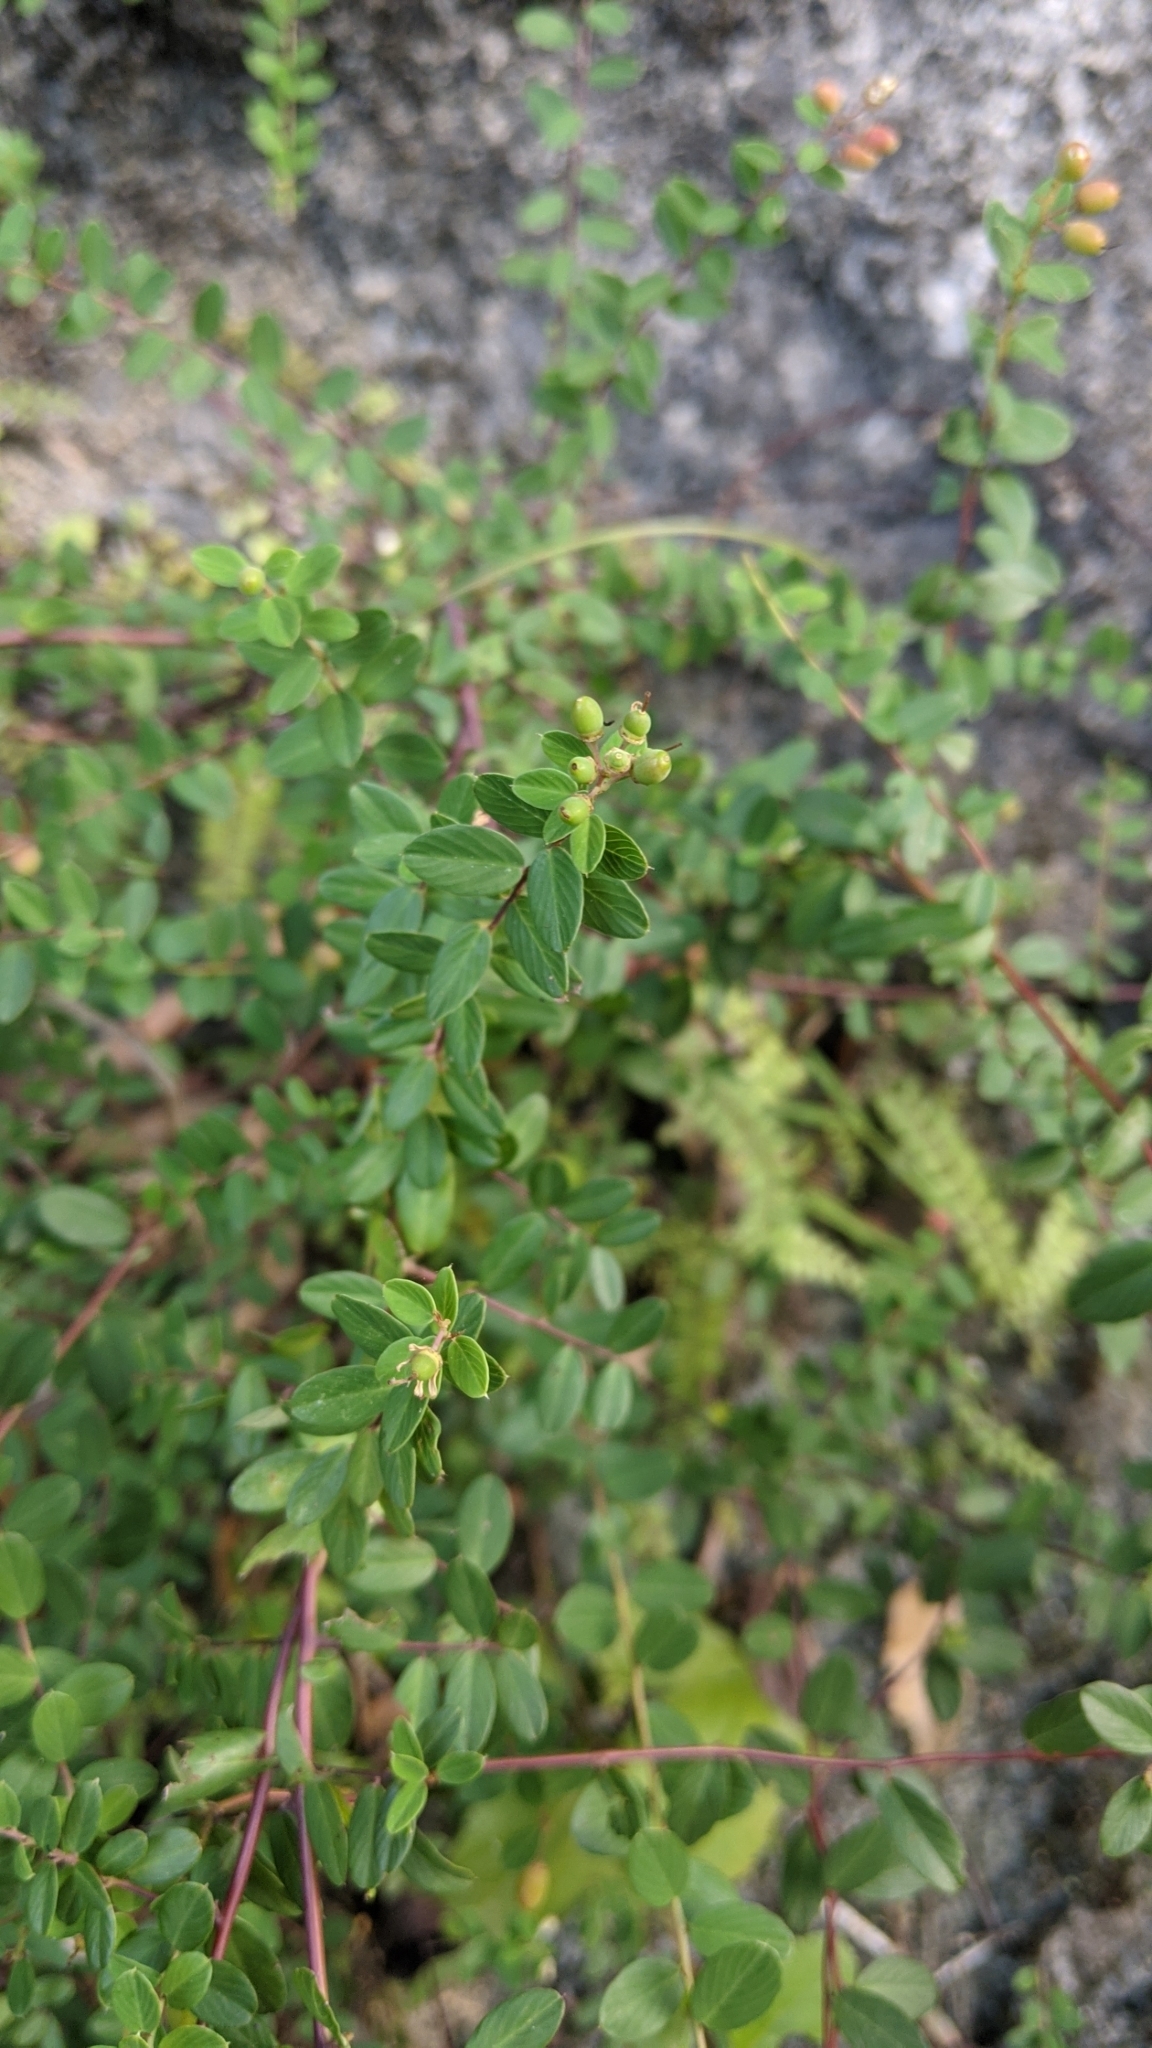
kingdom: Plantae
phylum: Tracheophyta
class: Magnoliopsida
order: Rosales
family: Rhamnaceae
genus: Berchemia
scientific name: Berchemia lineata
